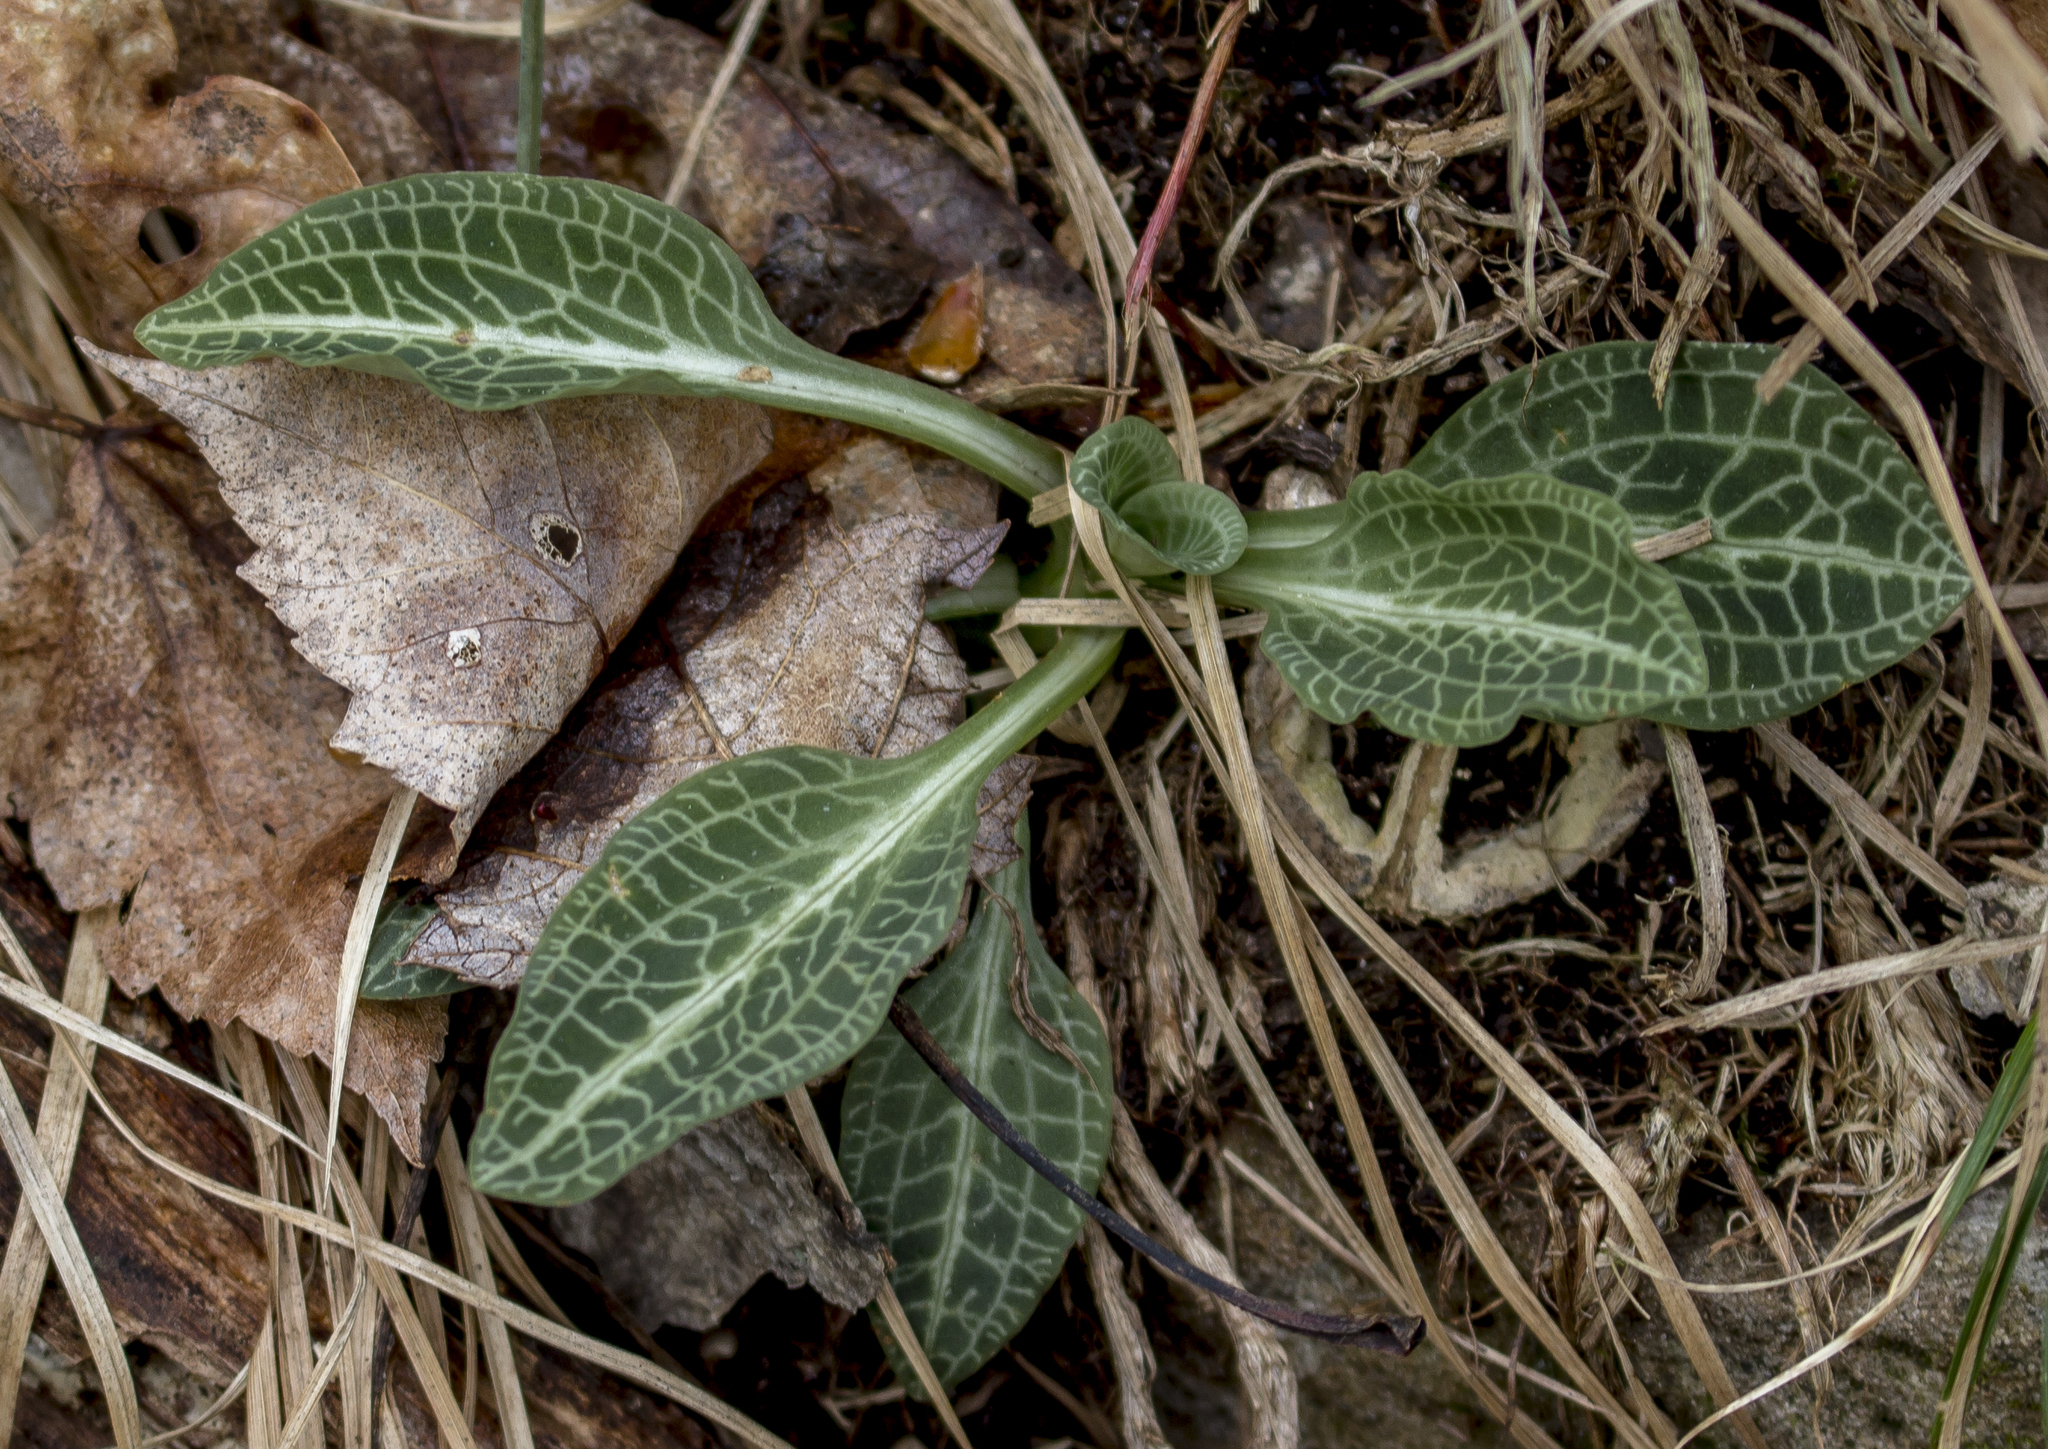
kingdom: Plantae
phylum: Tracheophyta
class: Liliopsida
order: Asparagales
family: Orchidaceae
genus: Goodyera
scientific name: Goodyera pubescens
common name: Downy rattlesnake-plantain
